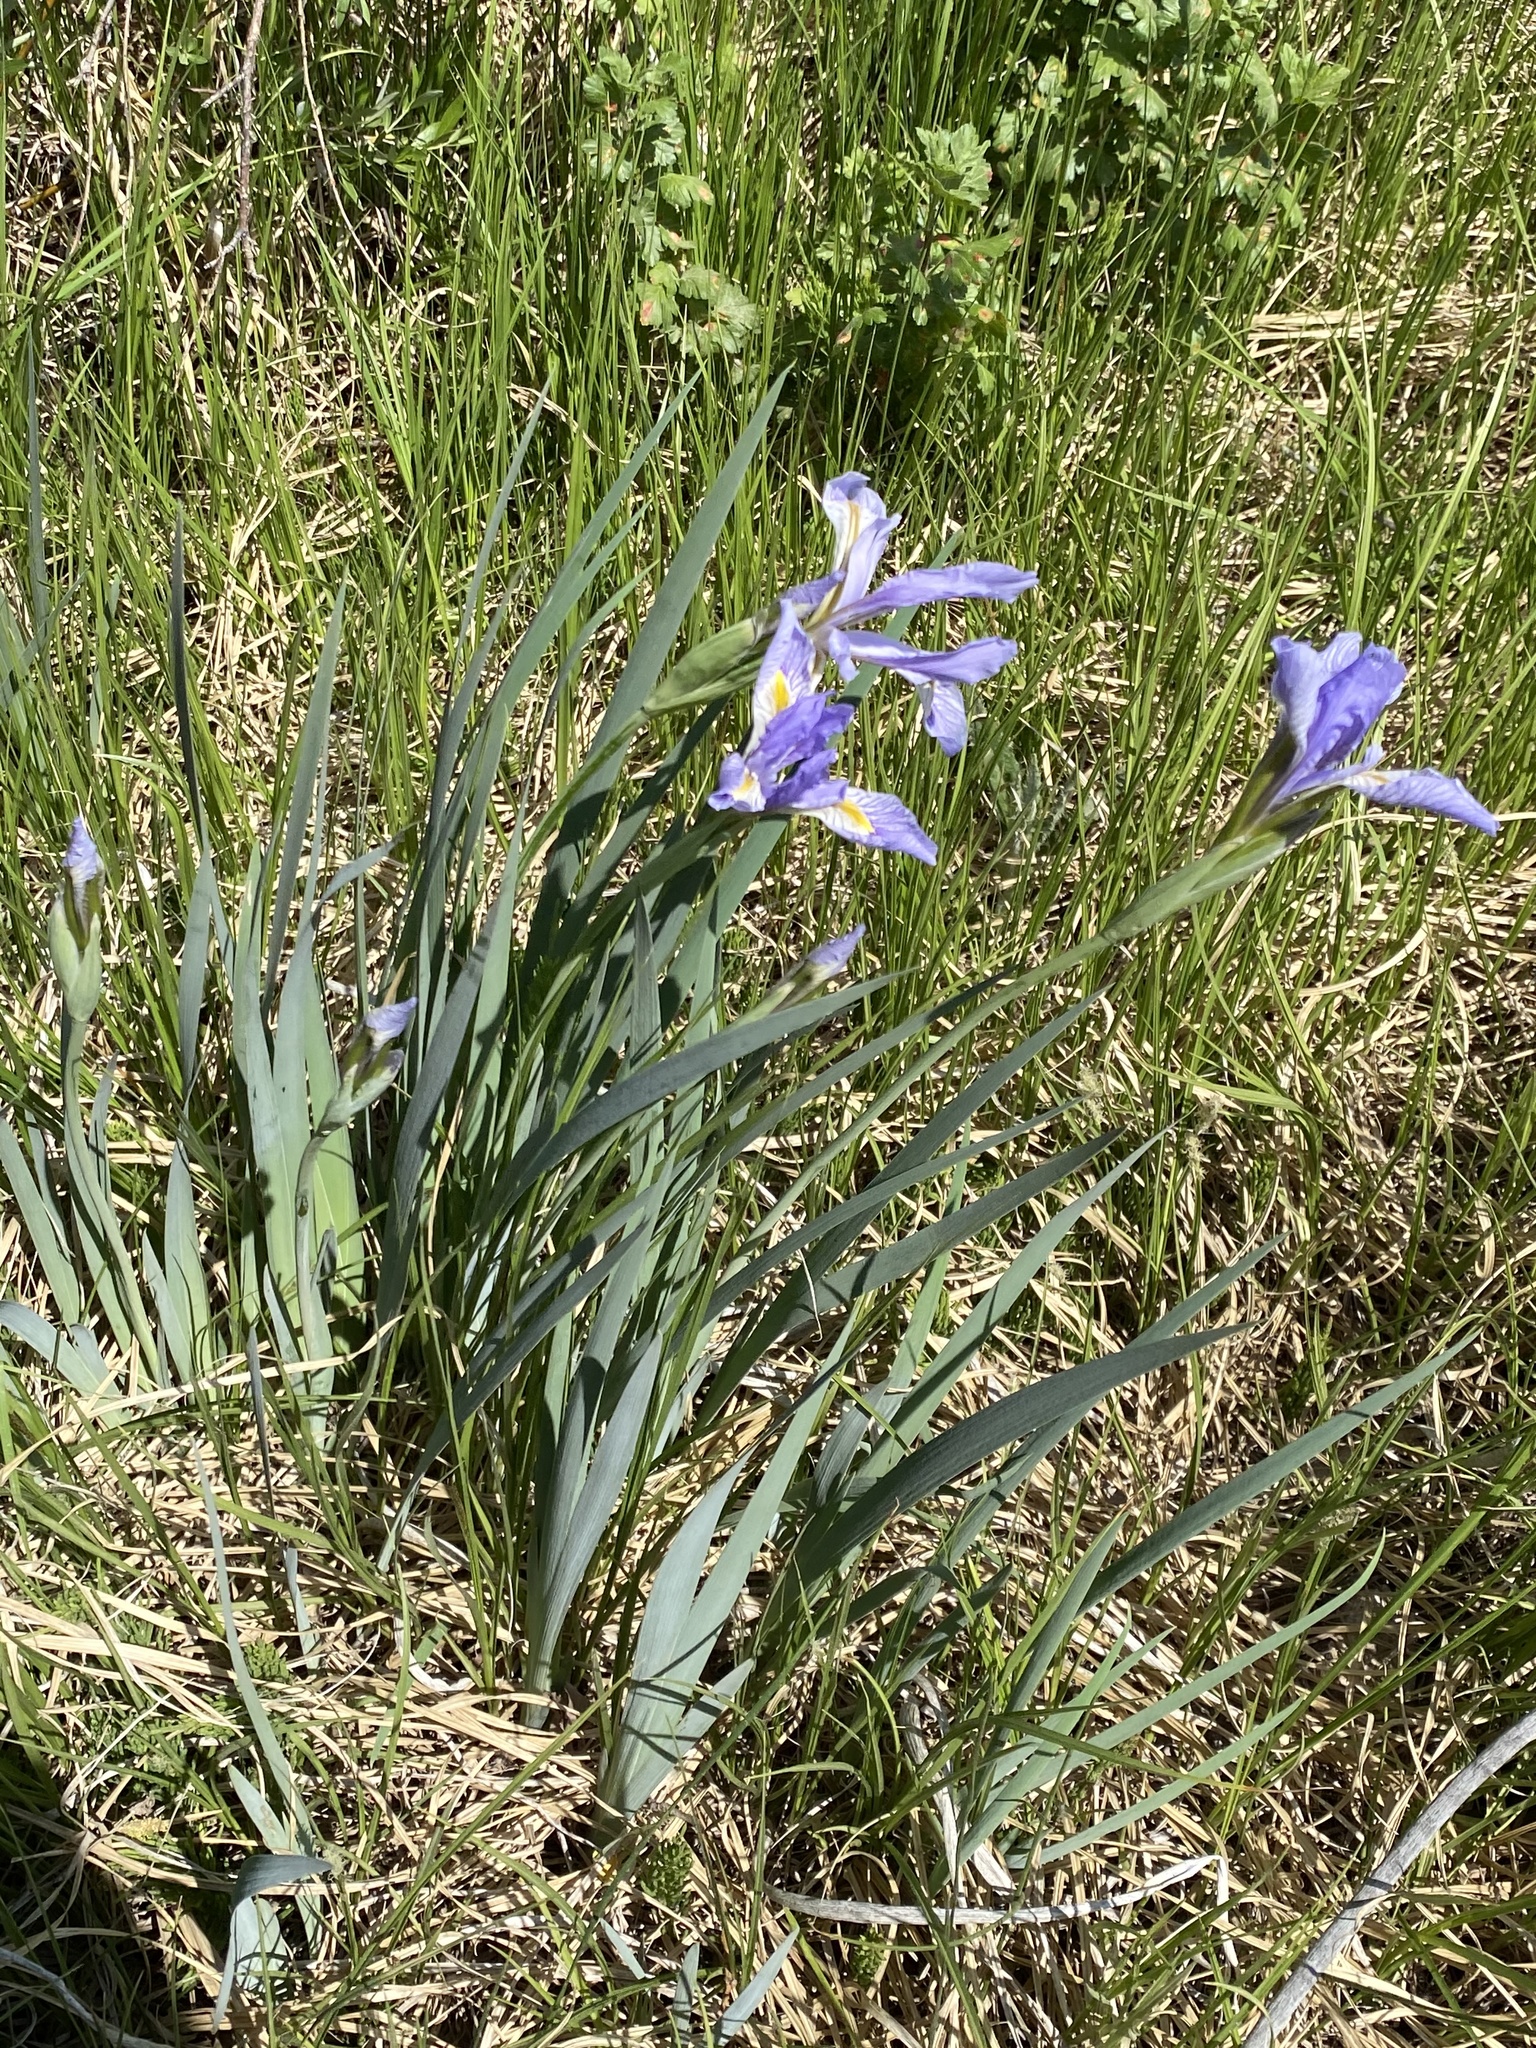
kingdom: Plantae
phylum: Tracheophyta
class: Liliopsida
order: Asparagales
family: Iridaceae
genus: Iris
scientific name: Iris missouriensis
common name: Rocky mountain iris
